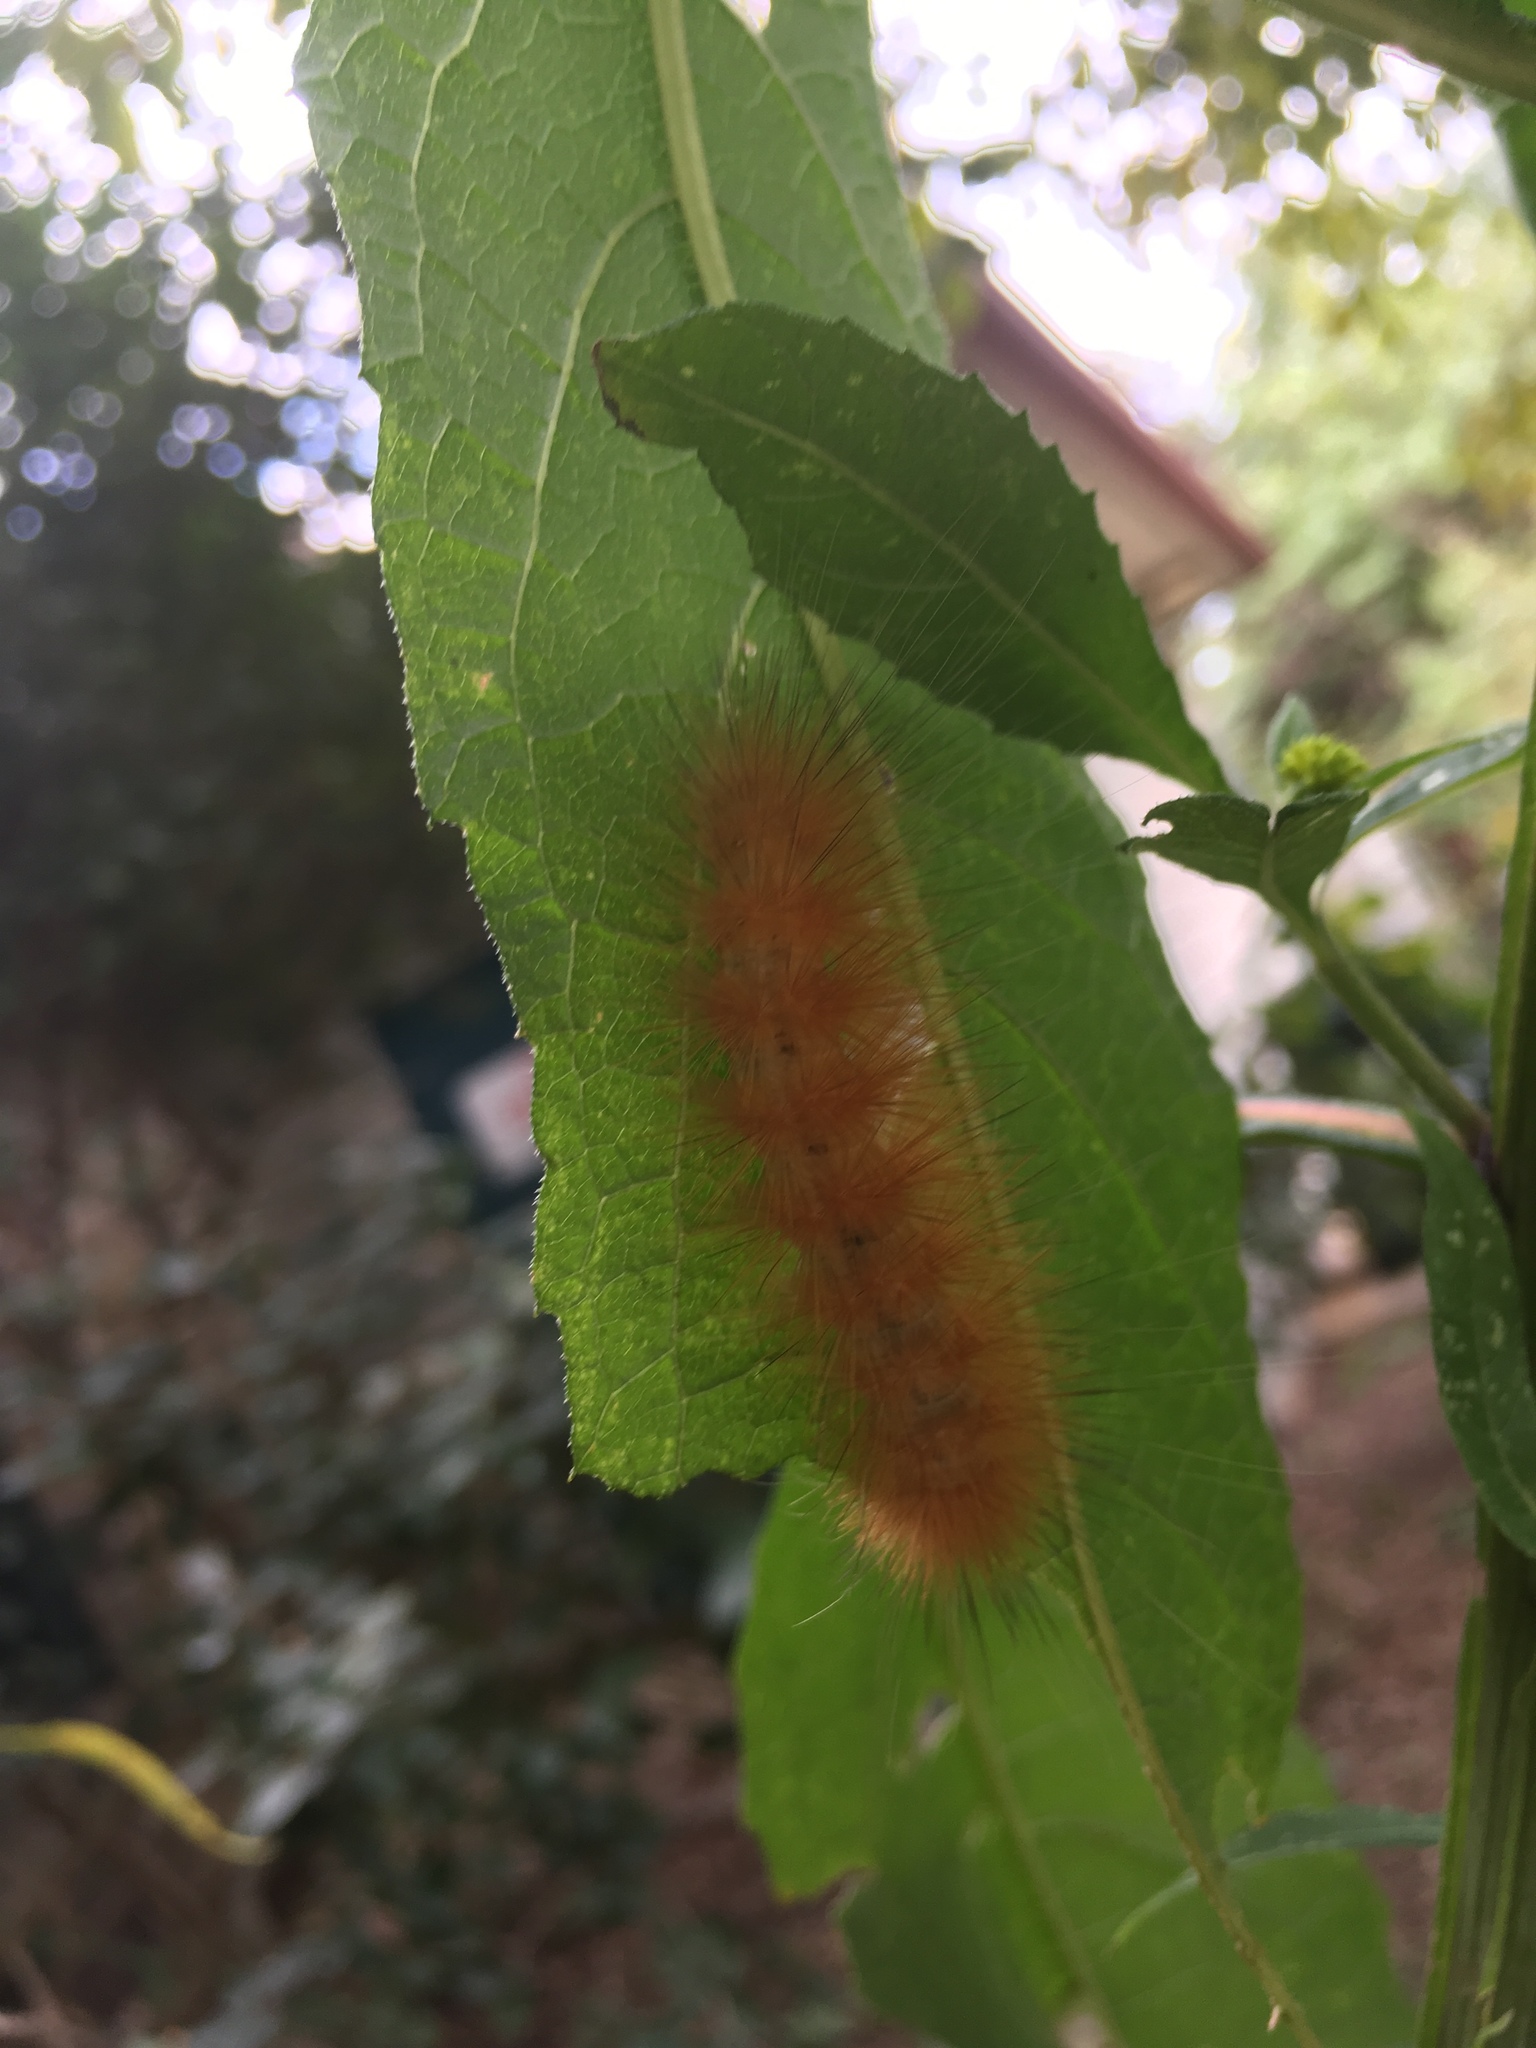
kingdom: Animalia
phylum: Arthropoda
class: Insecta
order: Lepidoptera
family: Erebidae
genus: Spilosoma
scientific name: Spilosoma virginica
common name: Virginia tiger moth
